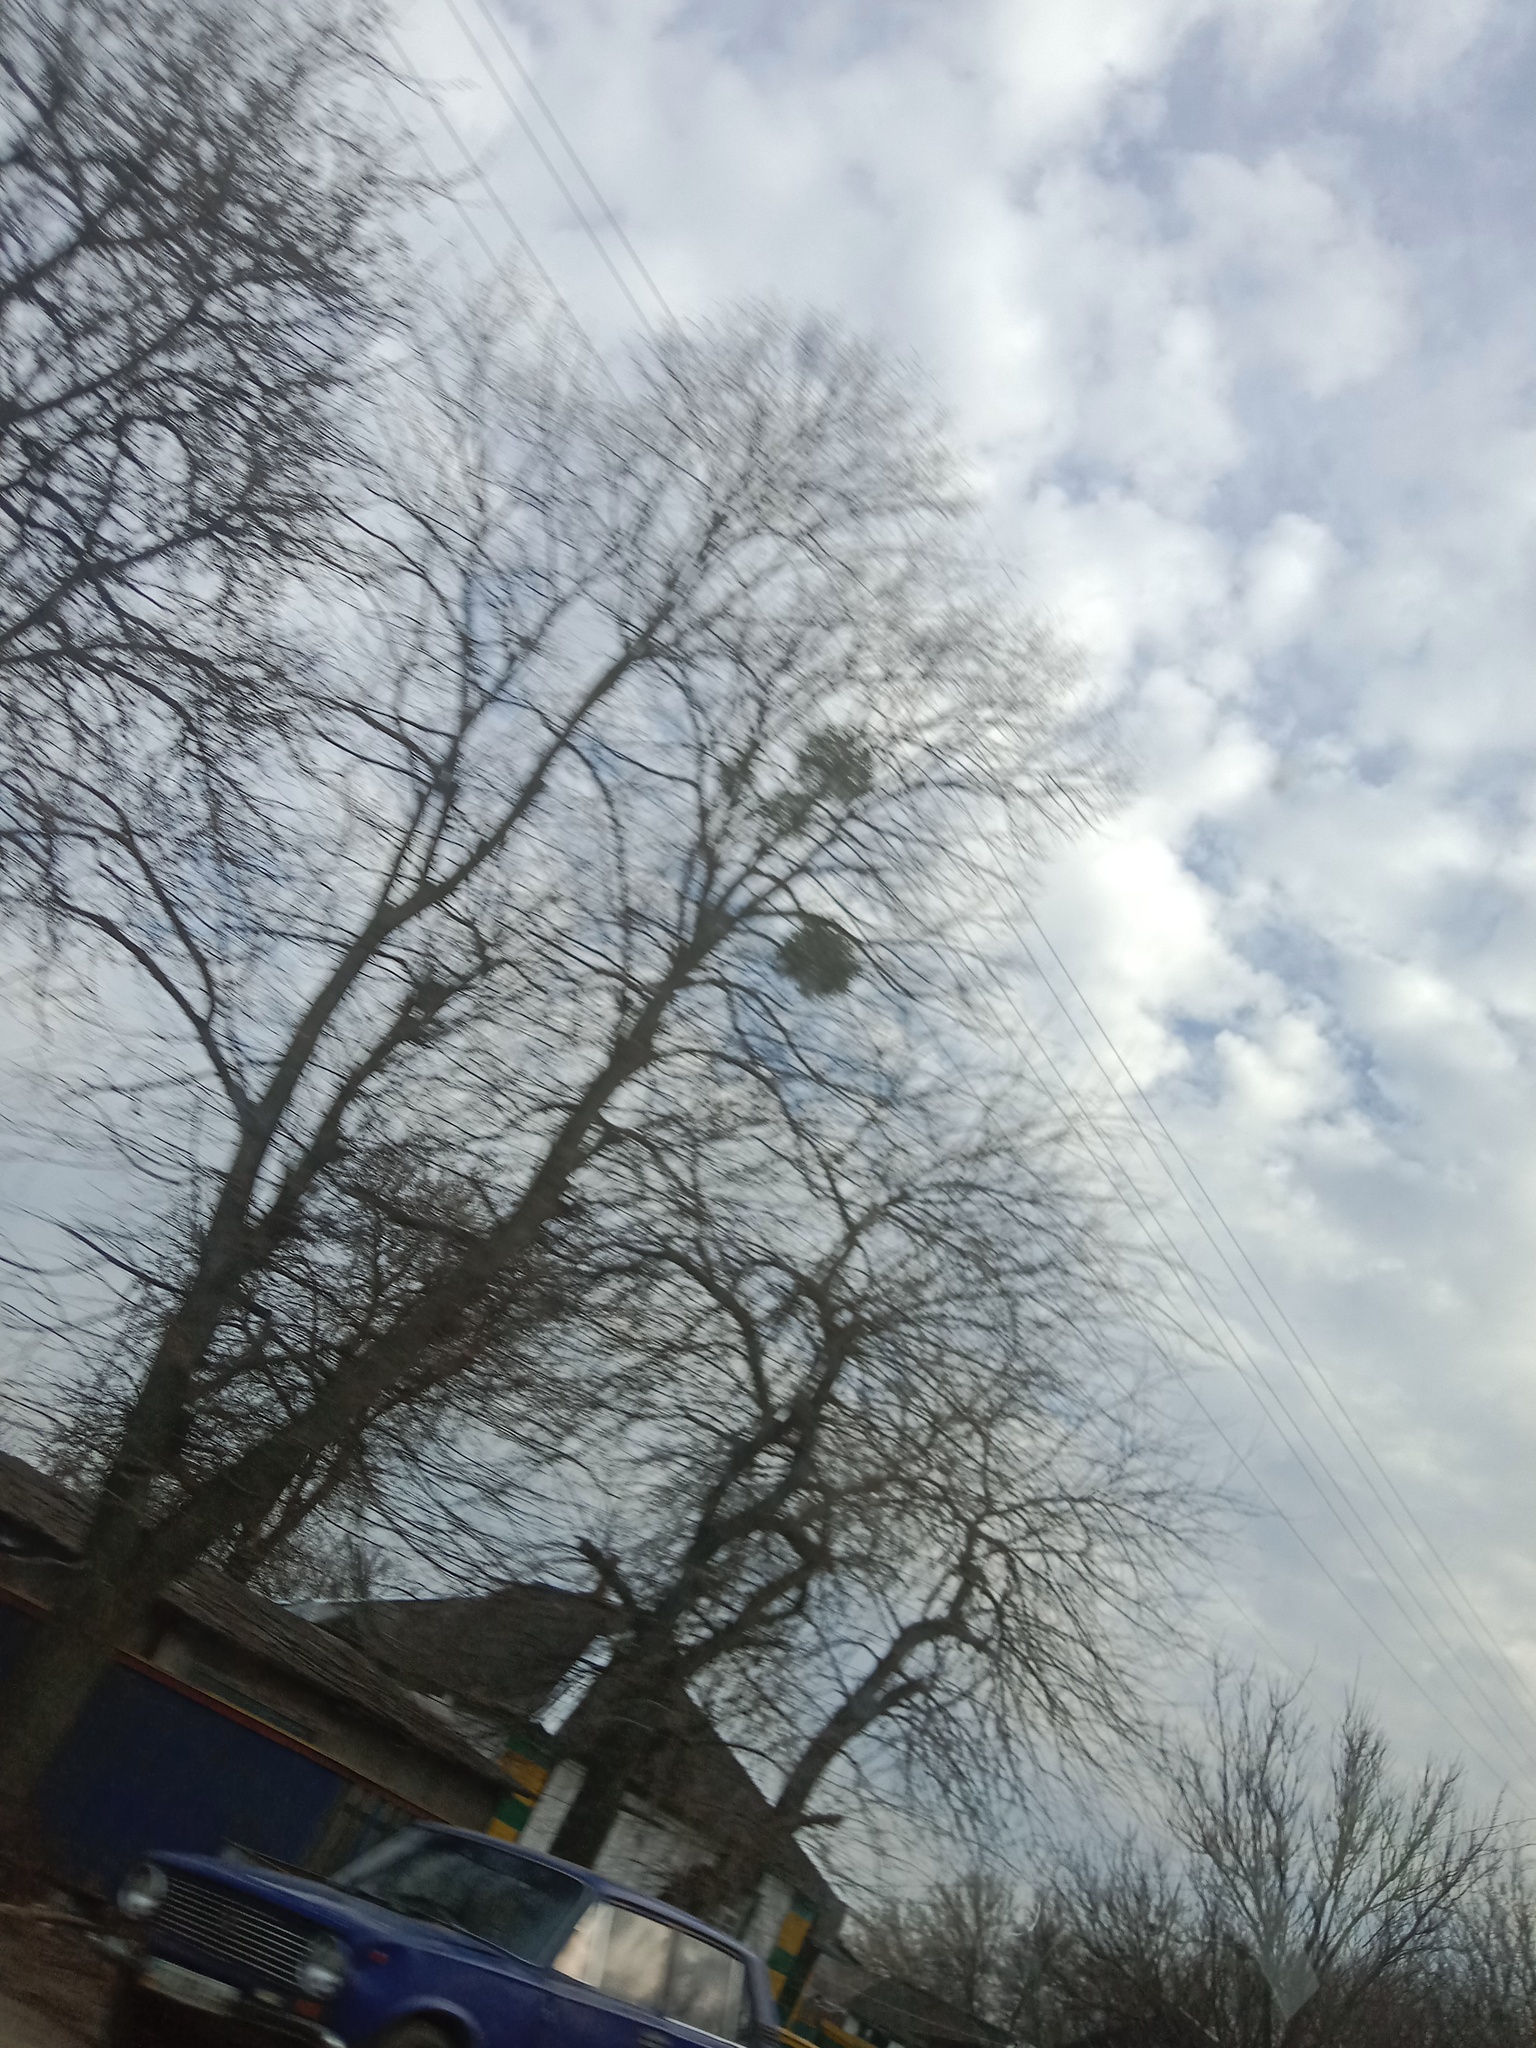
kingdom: Plantae
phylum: Tracheophyta
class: Magnoliopsida
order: Santalales
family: Viscaceae
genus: Viscum
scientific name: Viscum album
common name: Mistletoe
